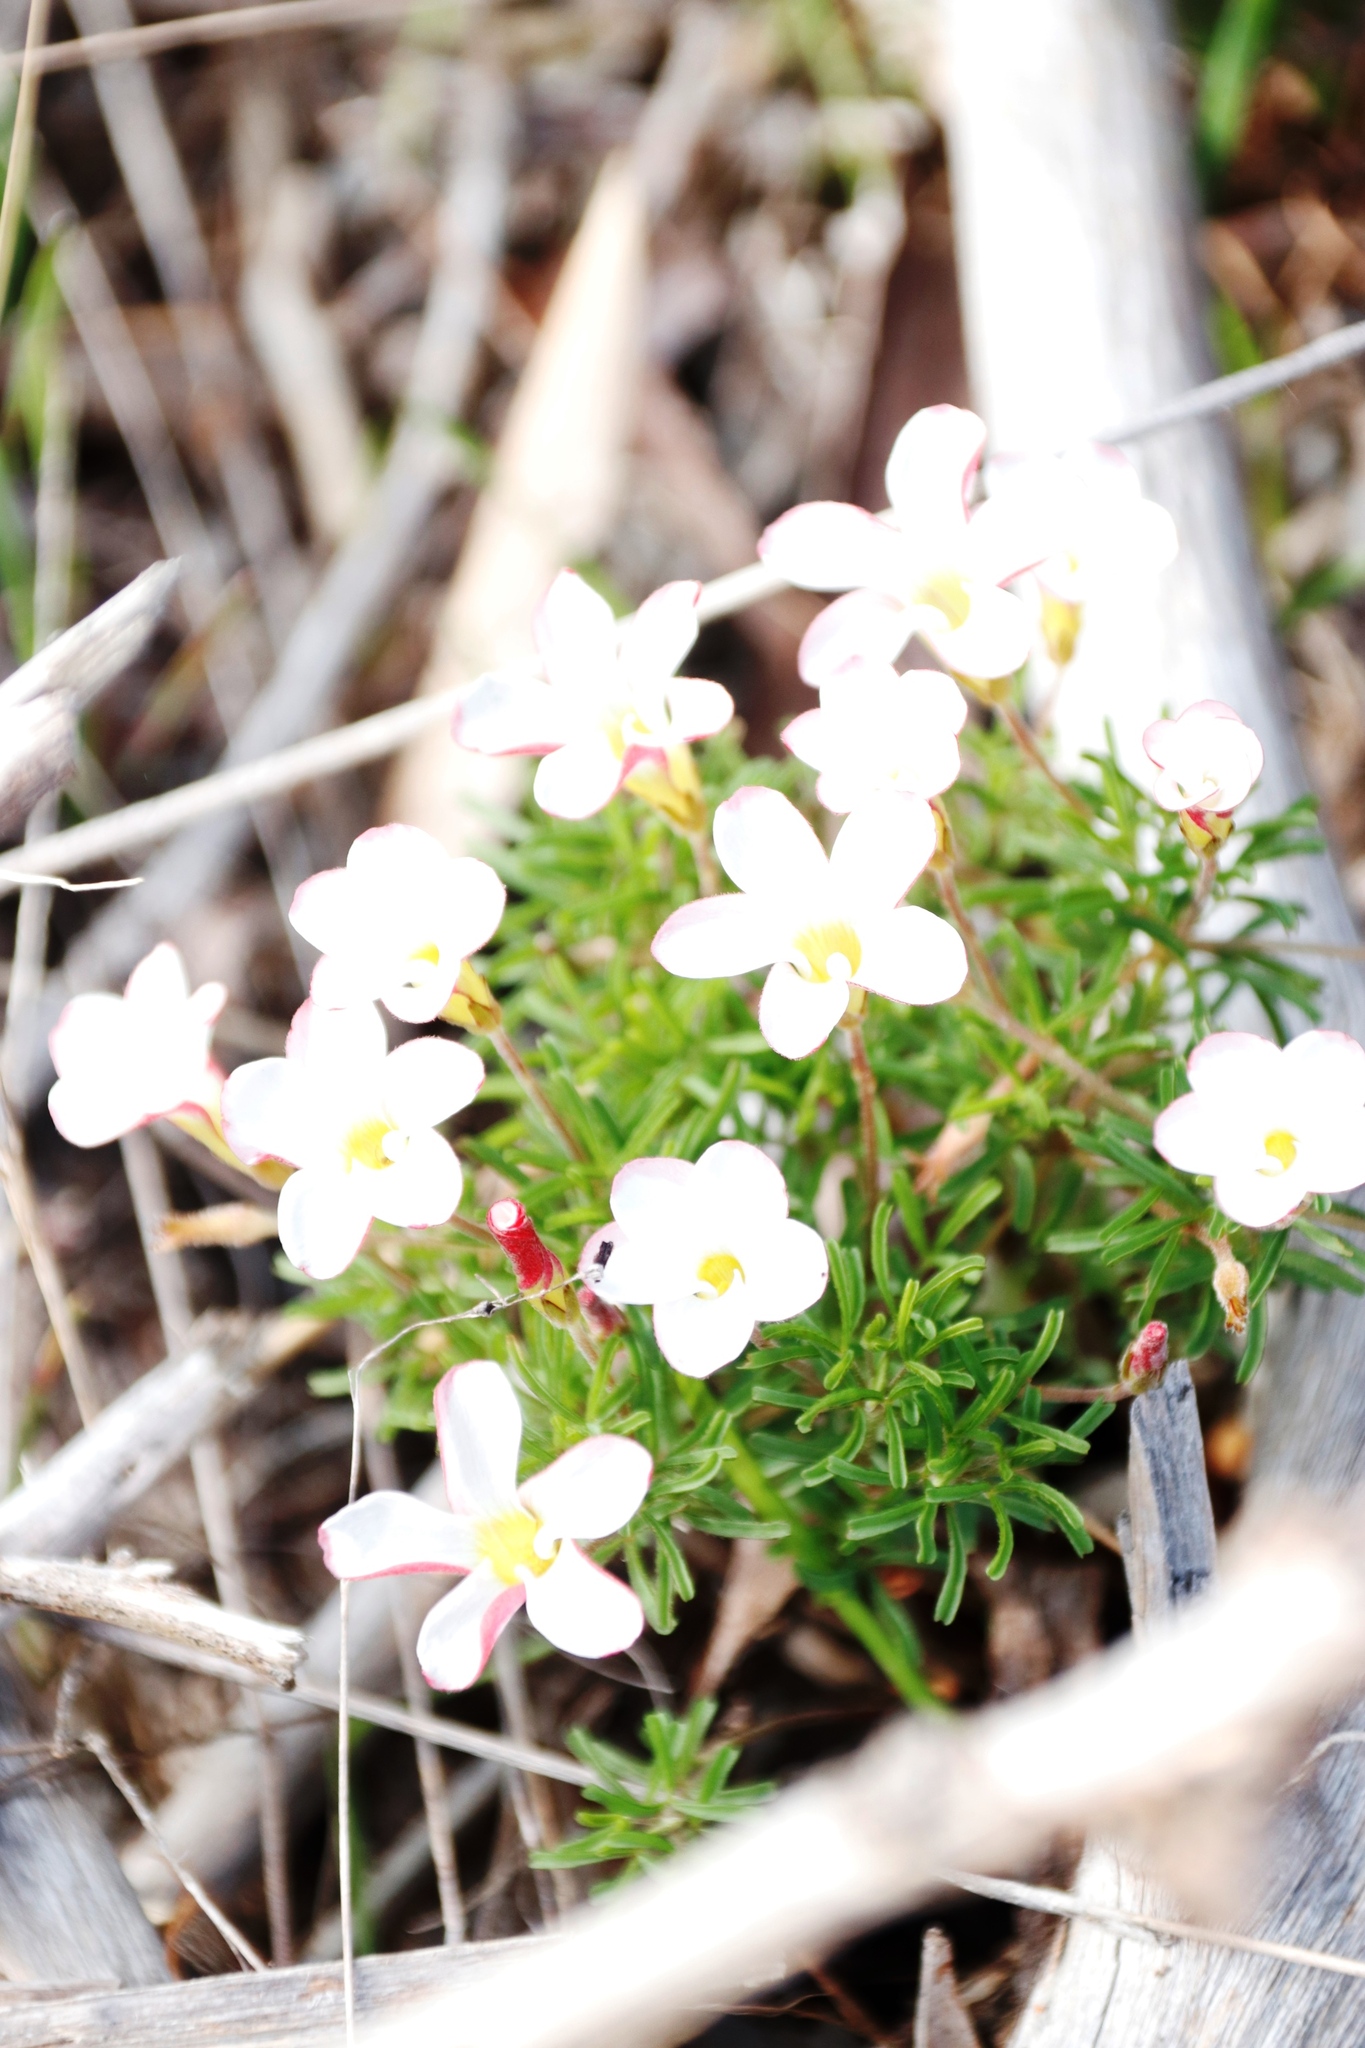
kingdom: Plantae
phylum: Tracheophyta
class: Magnoliopsida
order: Oxalidales
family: Oxalidaceae
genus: Oxalis
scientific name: Oxalis versicolor
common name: Peppermint rock oxalis
